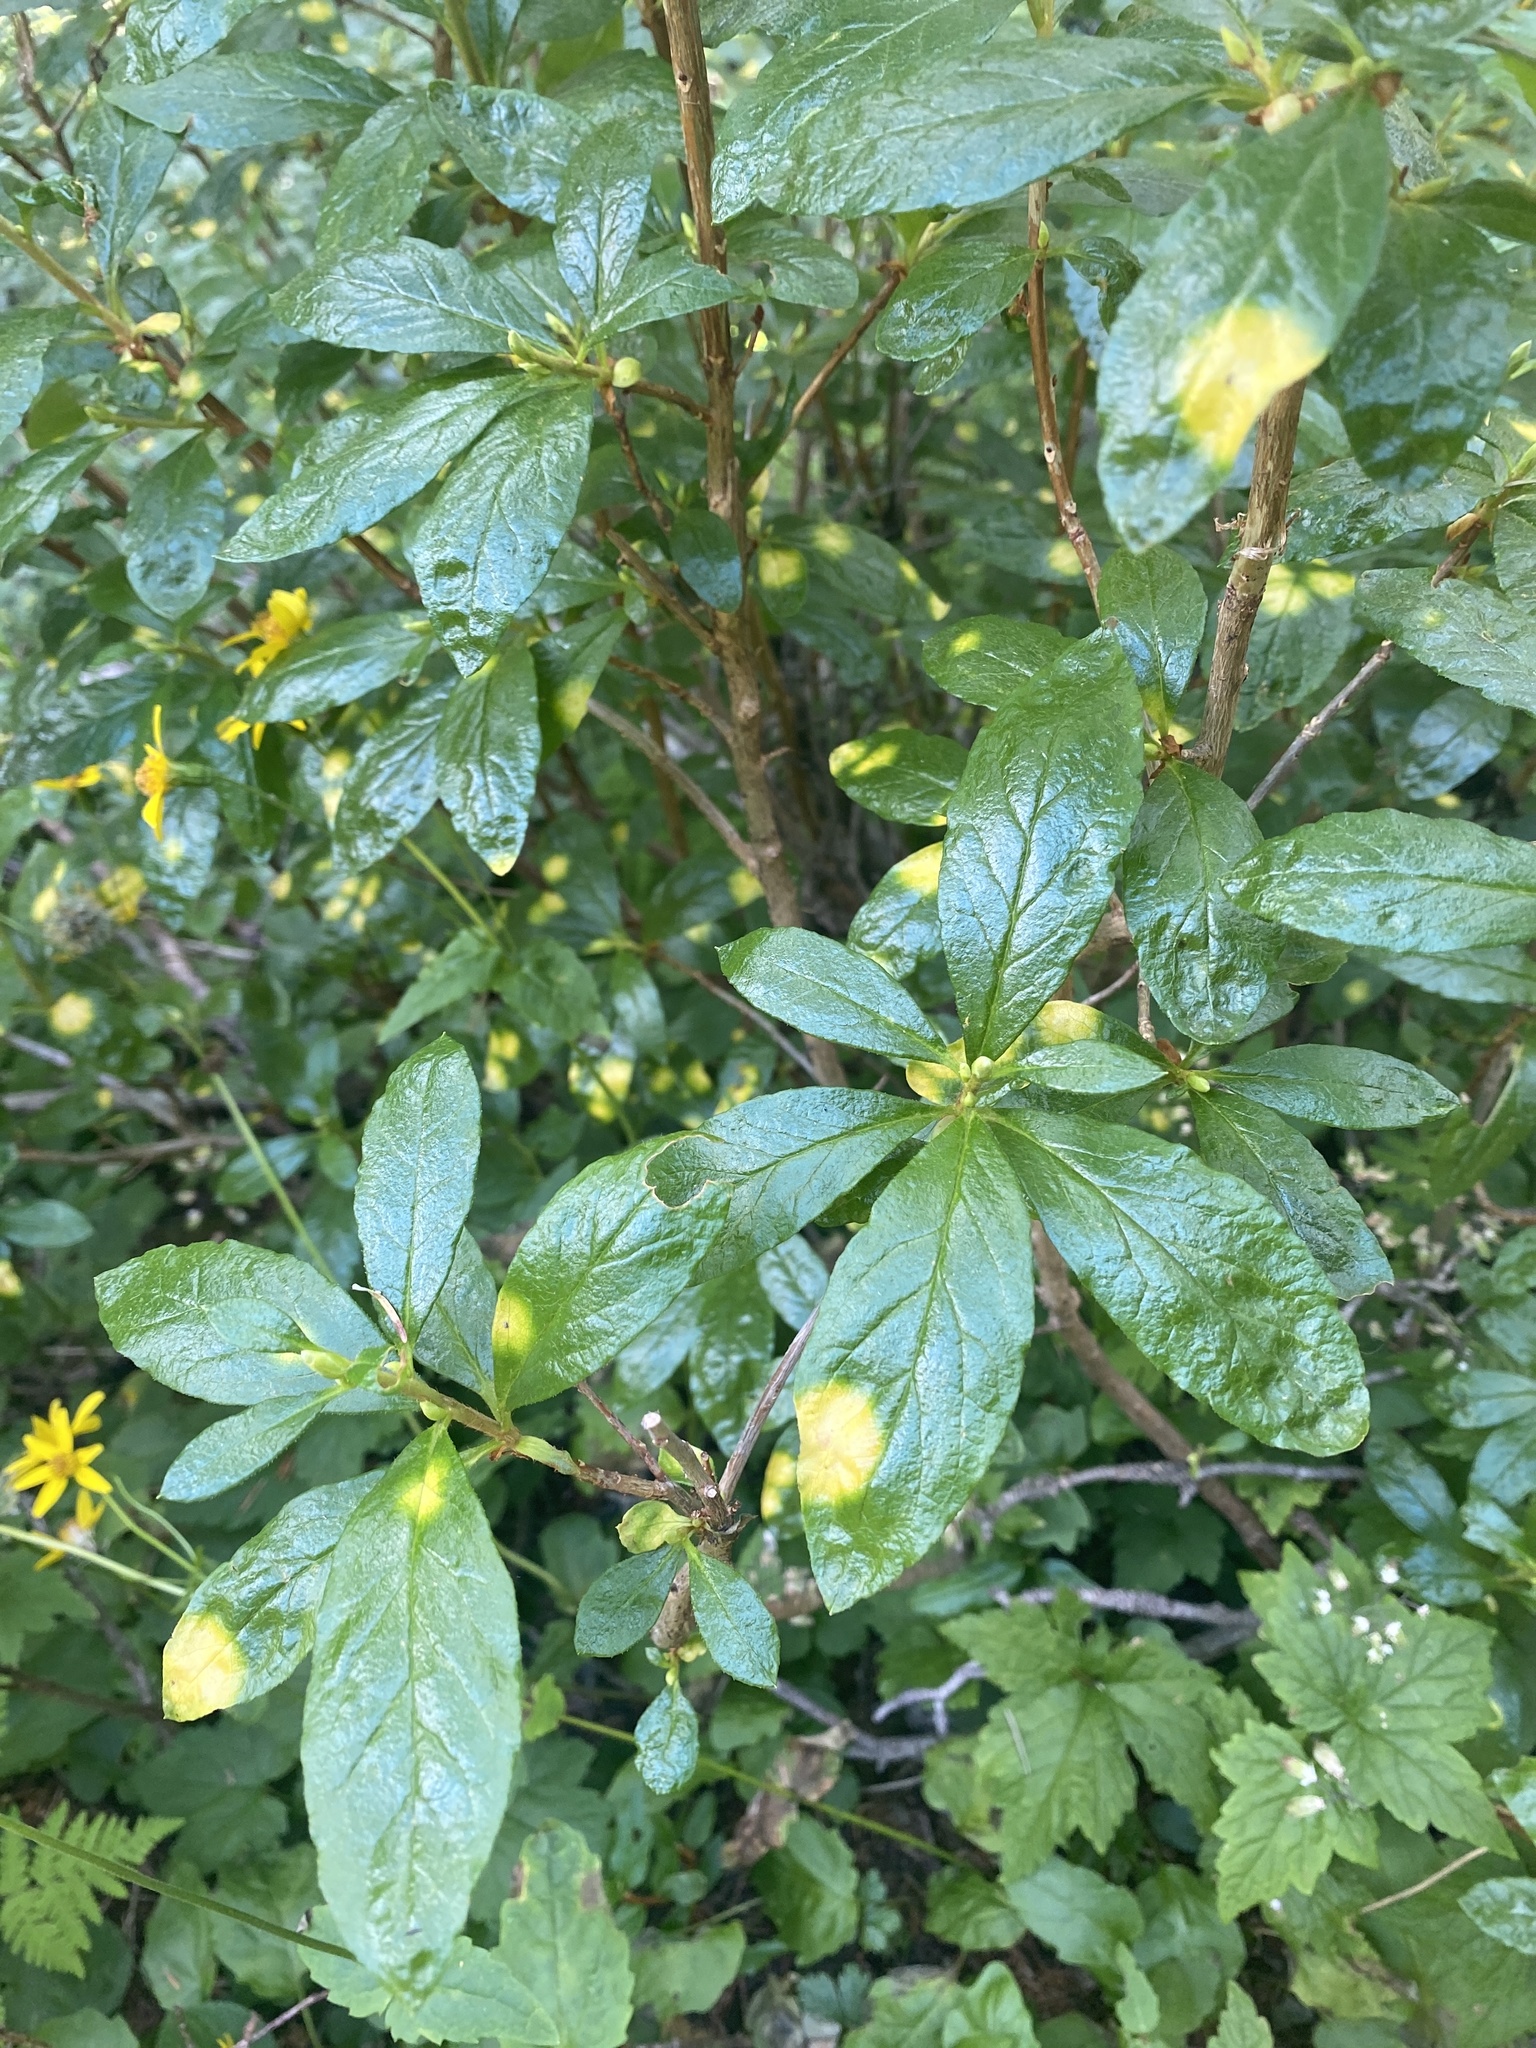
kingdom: Plantae
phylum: Tracheophyta
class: Magnoliopsida
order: Ericales
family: Ericaceae
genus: Rhododendron
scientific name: Rhododendron albiflorum
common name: White rhododendron
